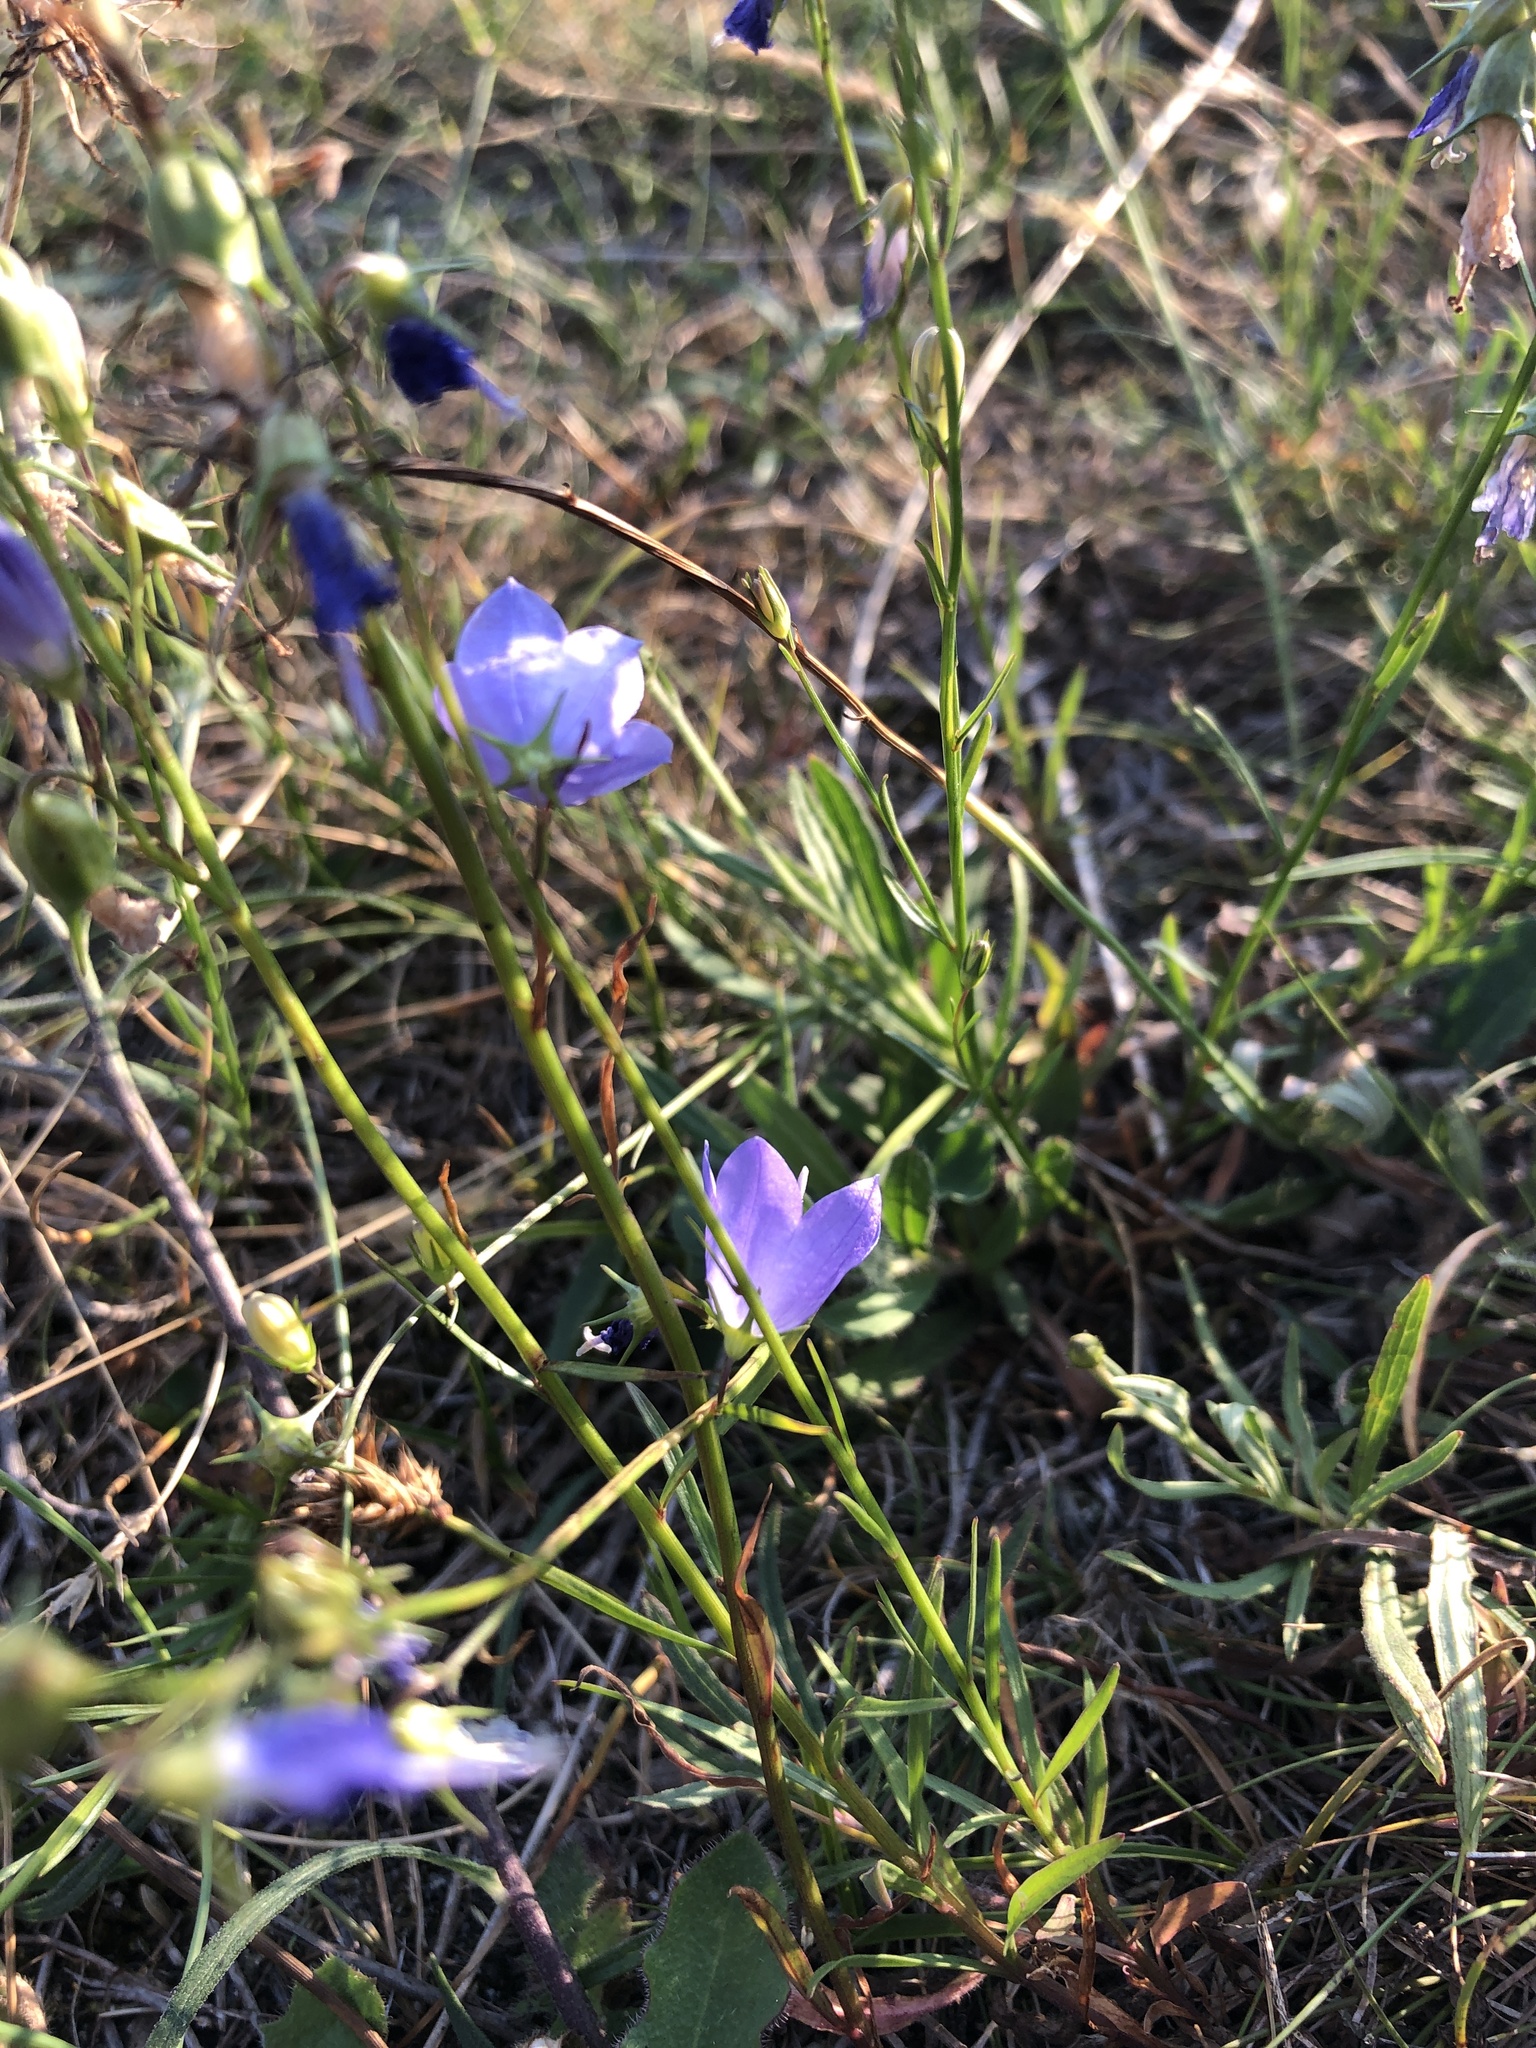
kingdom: Plantae
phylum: Tracheophyta
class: Magnoliopsida
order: Asterales
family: Campanulaceae
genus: Campanula
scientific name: Campanula rotundifolia
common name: Harebell
